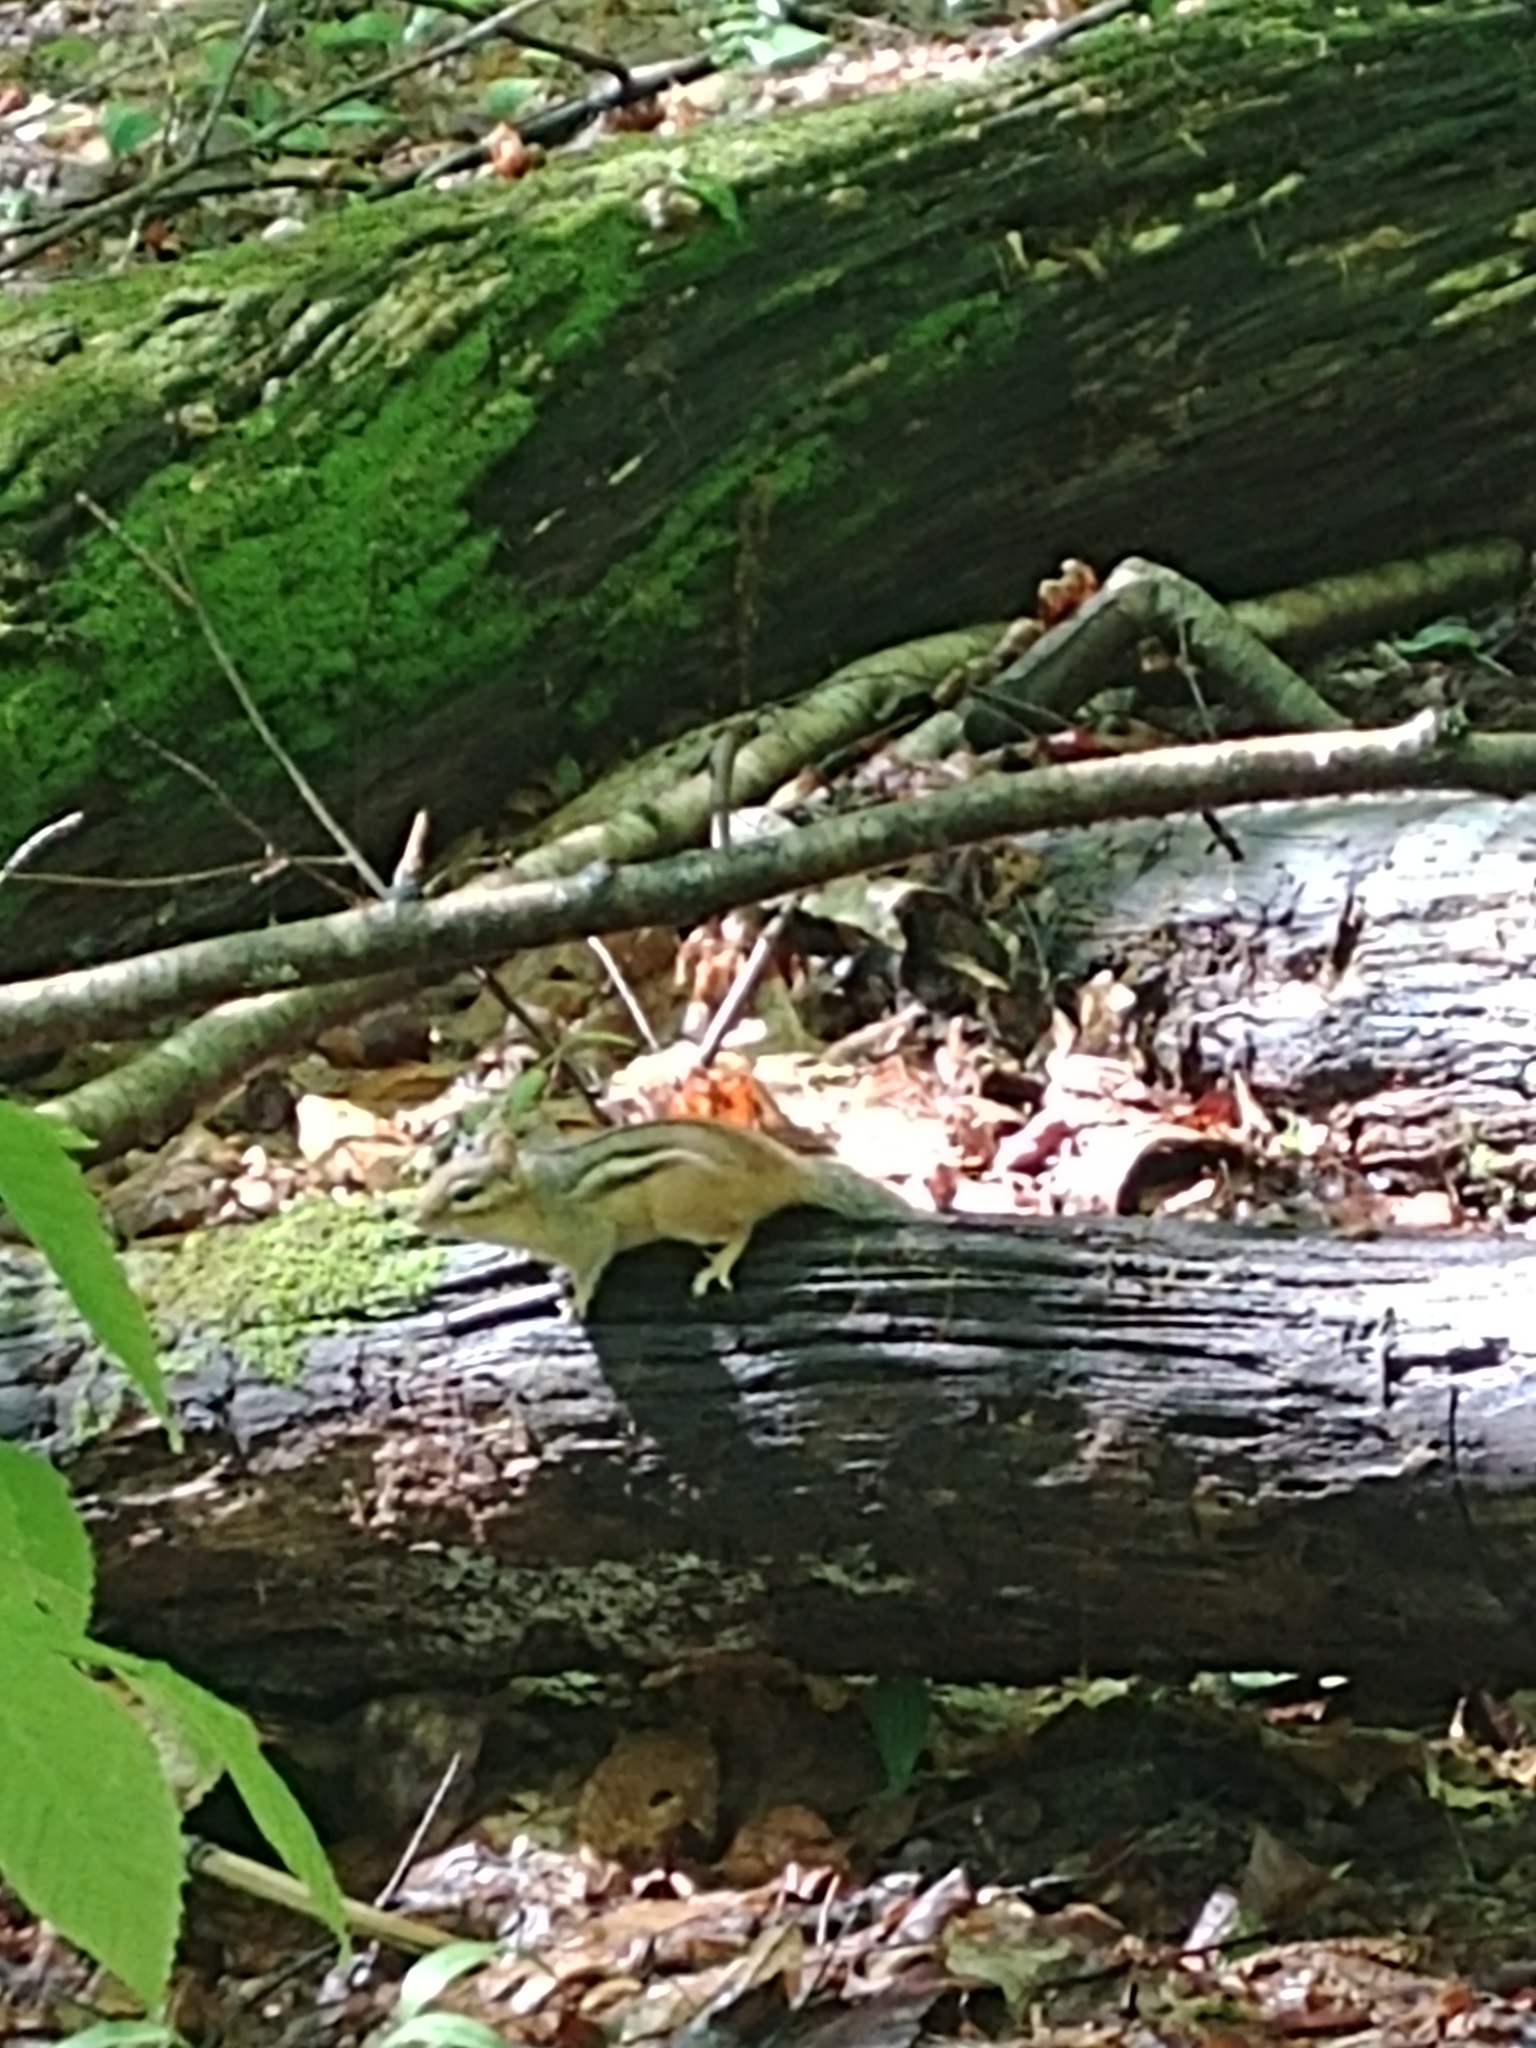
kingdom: Animalia
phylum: Chordata
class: Mammalia
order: Rodentia
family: Sciuridae
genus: Tamias
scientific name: Tamias striatus
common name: Eastern chipmunk
